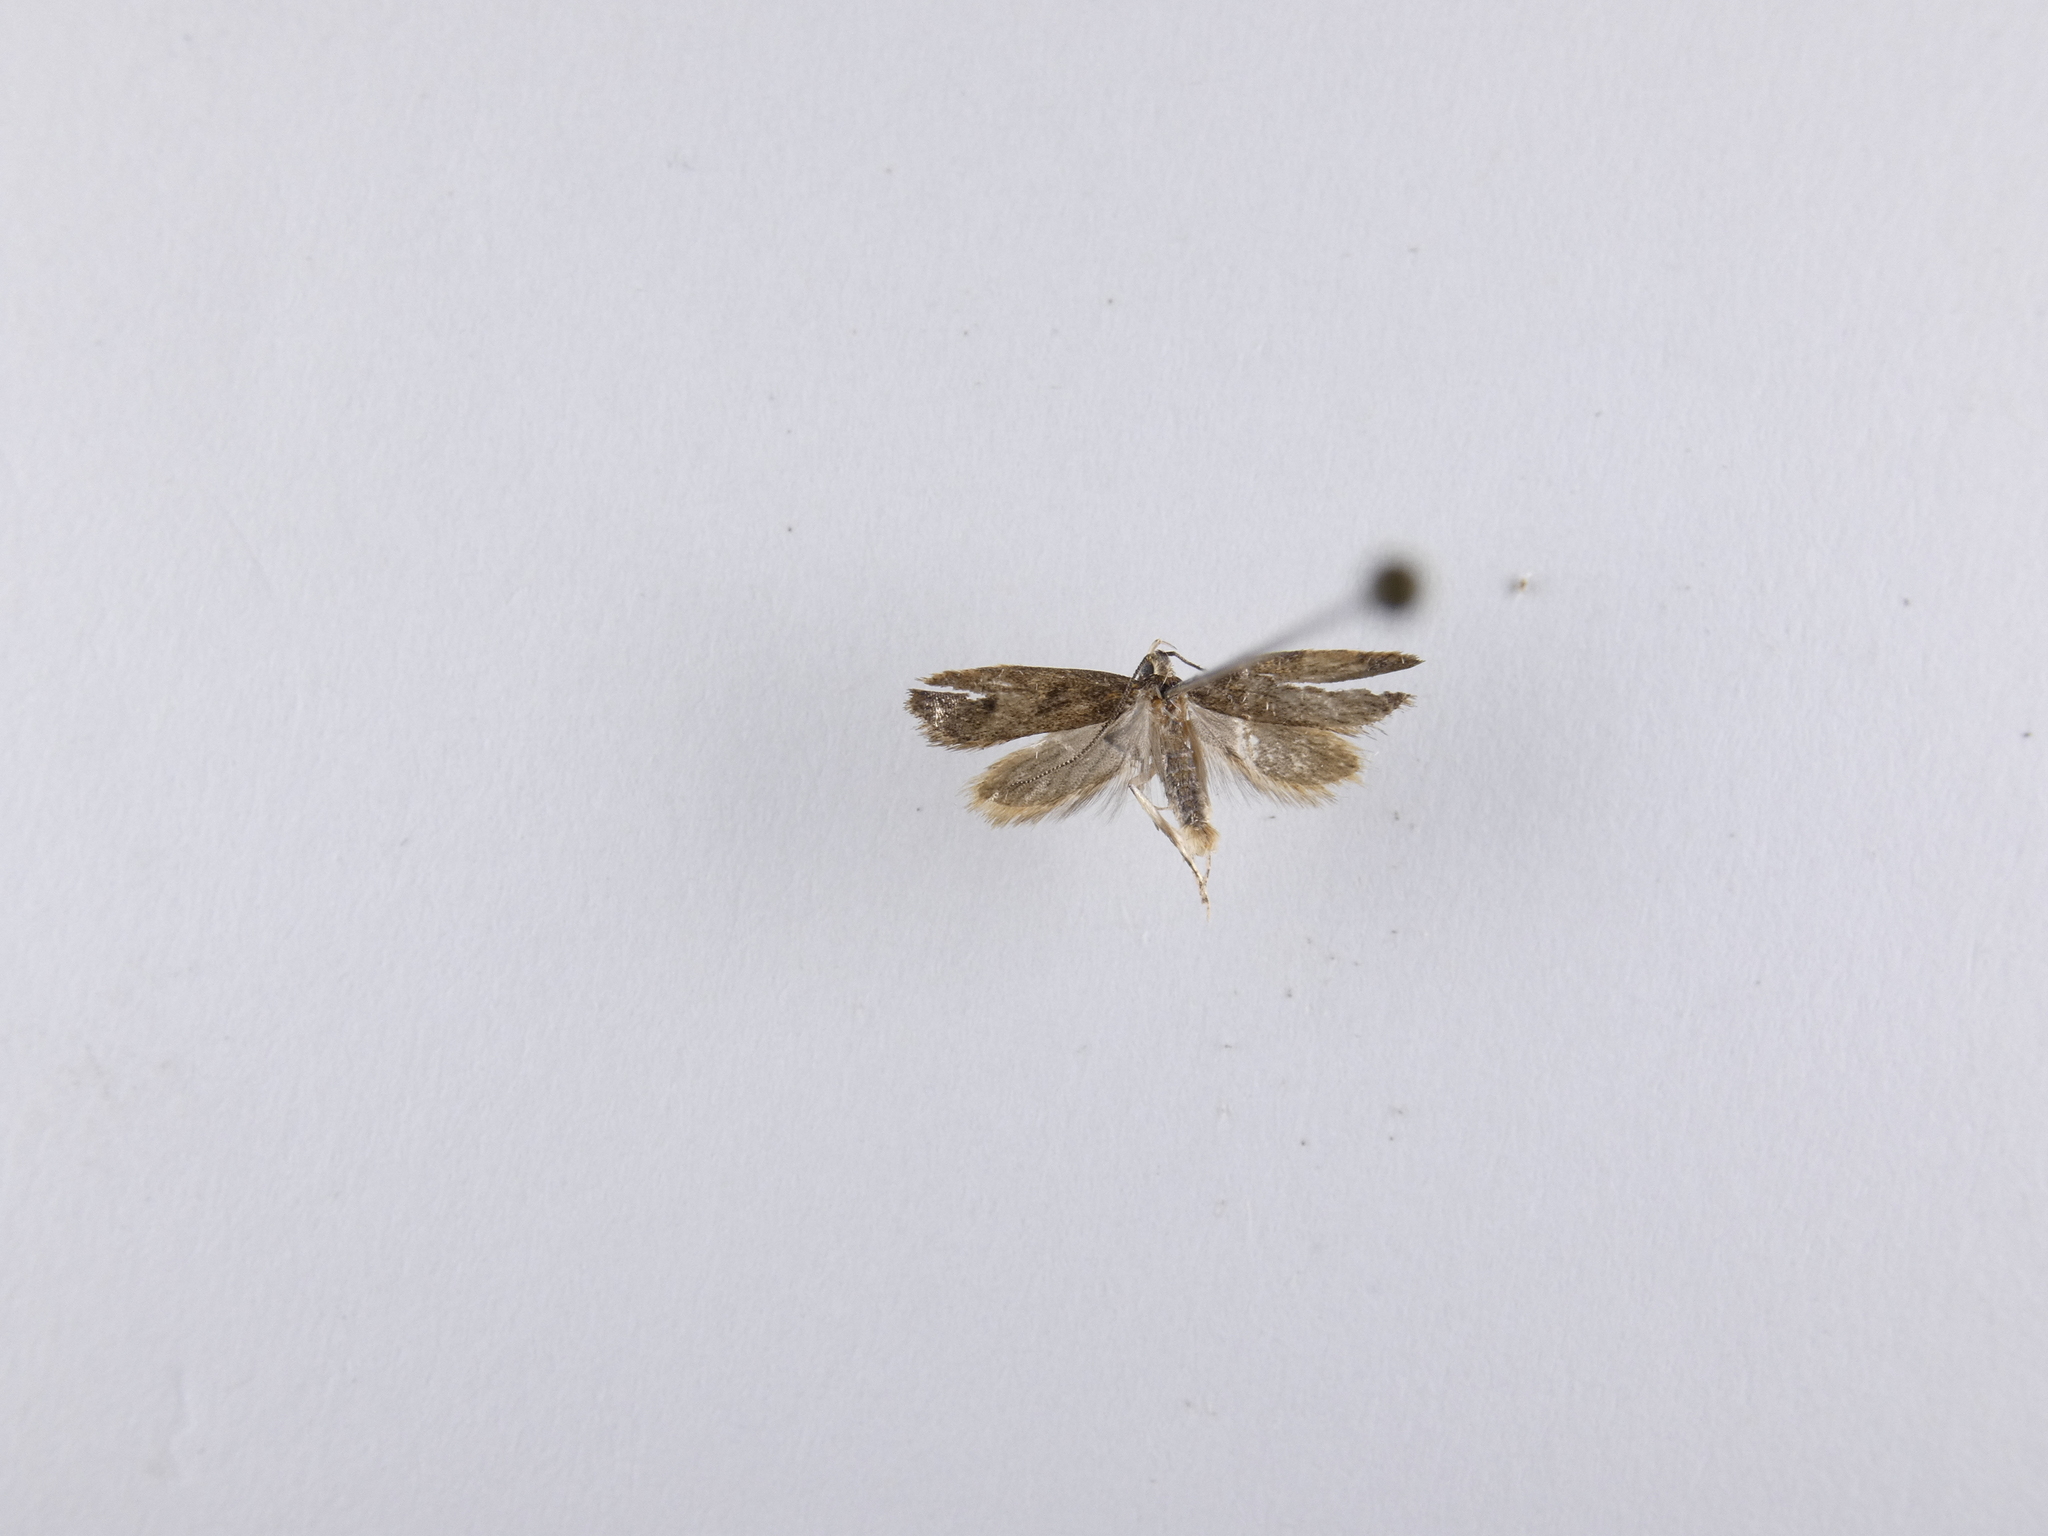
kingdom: Animalia
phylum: Arthropoda
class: Insecta
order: Lepidoptera
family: Oecophoridae
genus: Gymnobathra
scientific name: Gymnobathra tholodella
